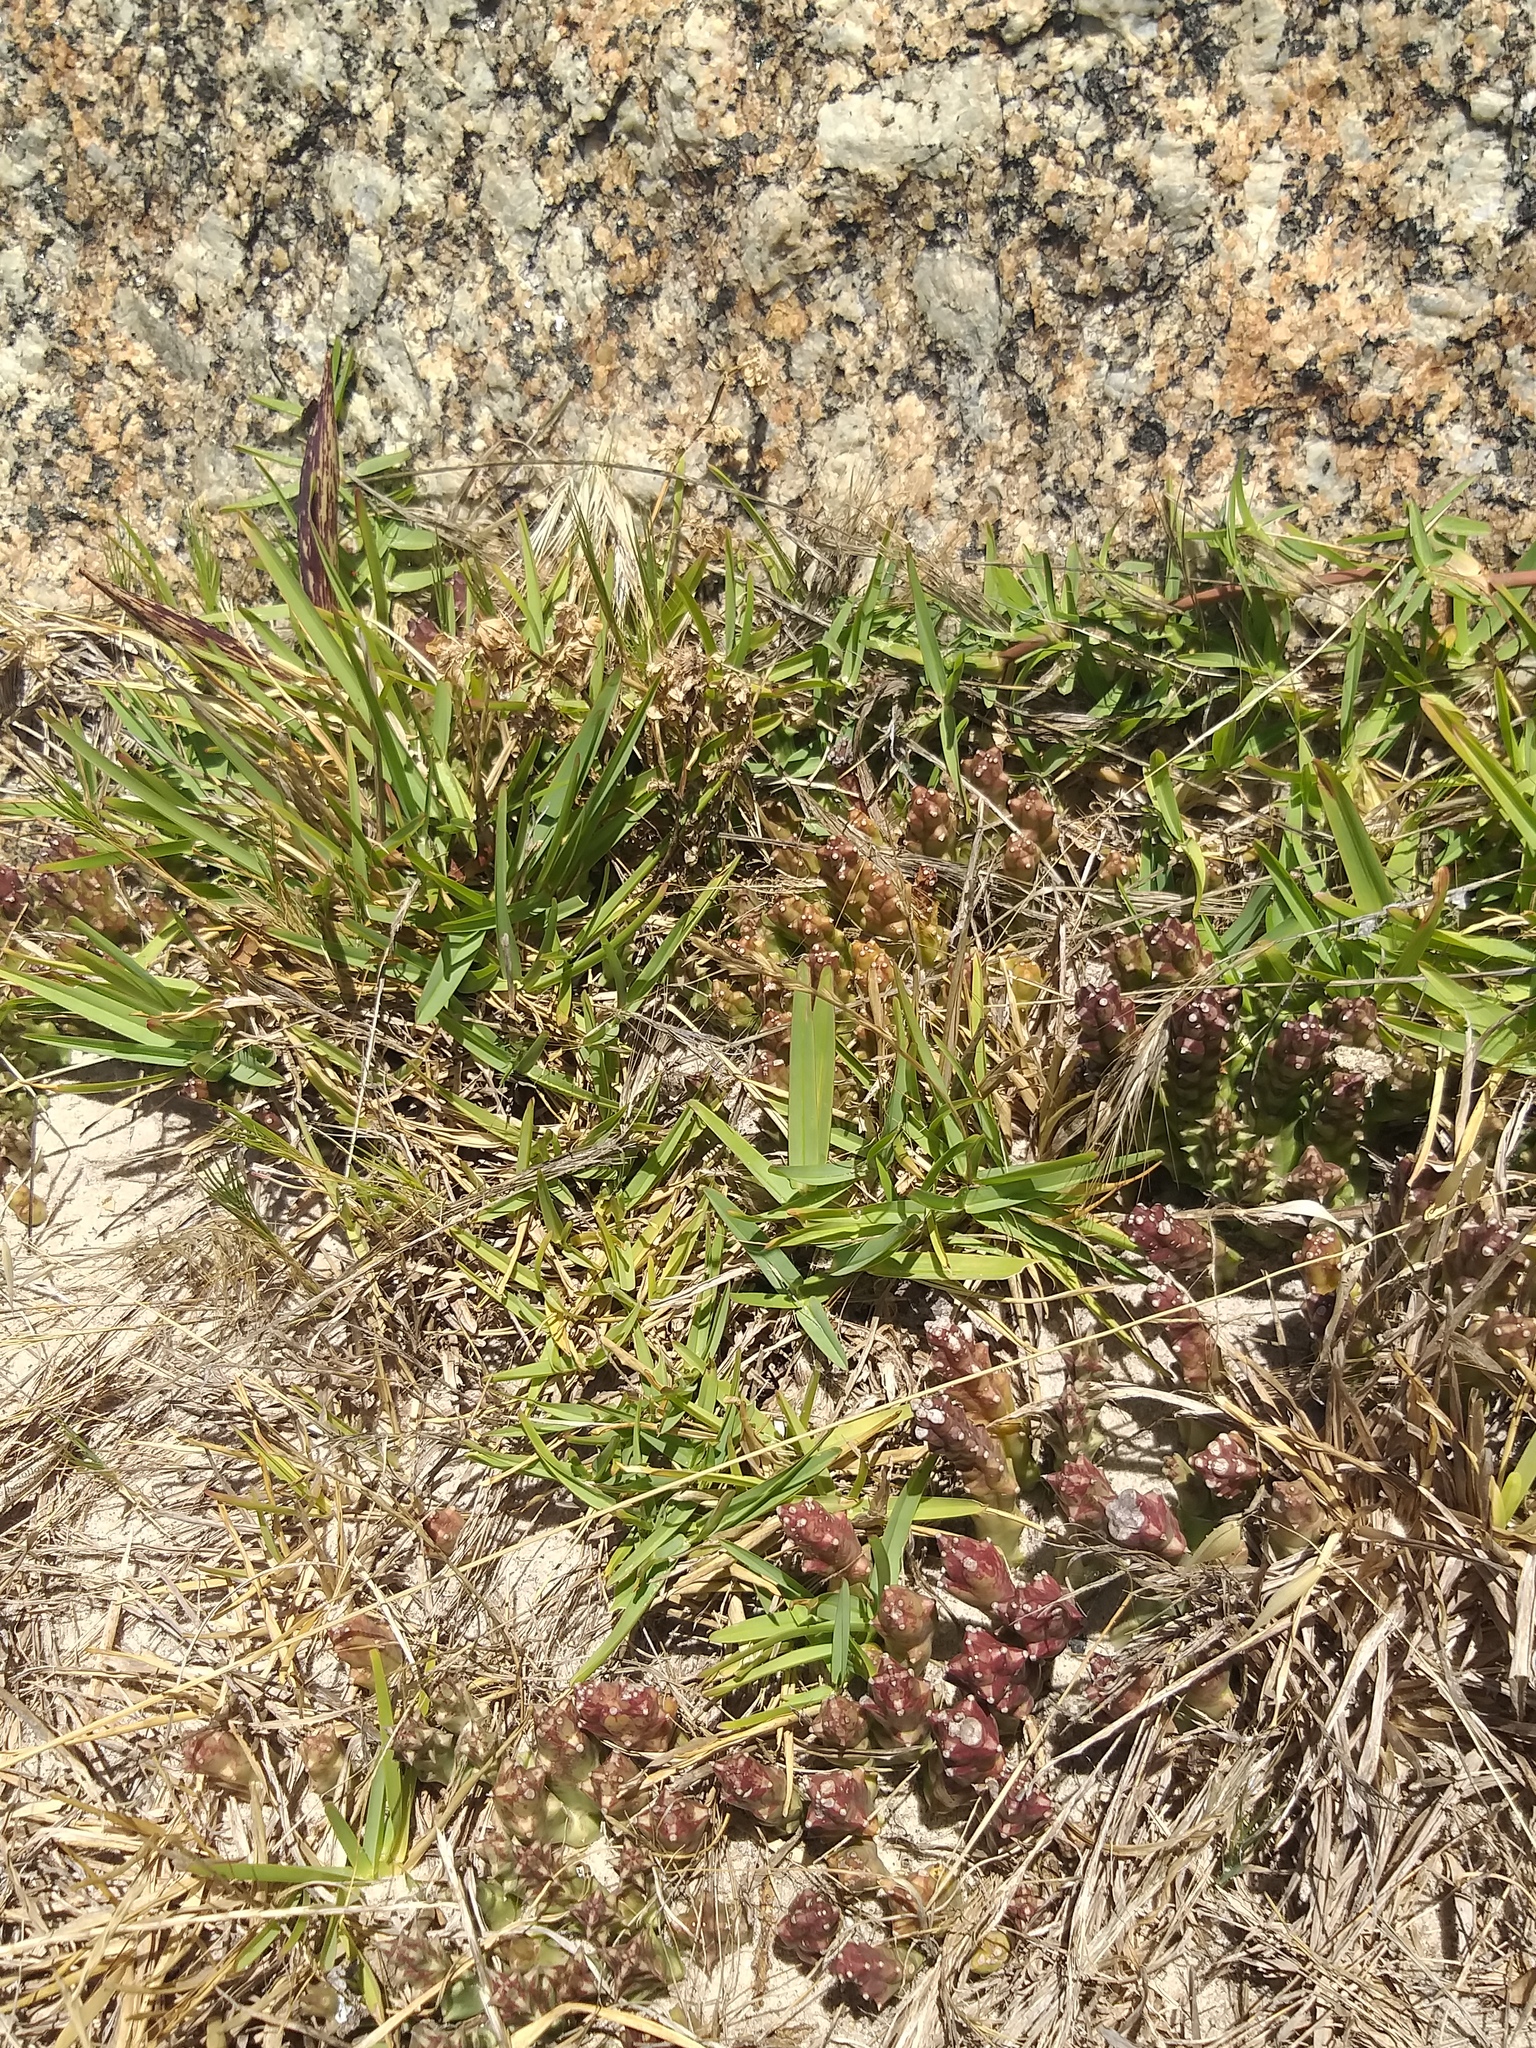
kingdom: Plantae
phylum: Tracheophyta
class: Magnoliopsida
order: Gentianales
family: Apocynaceae
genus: Ceropegia
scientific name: Ceropegia mixta
